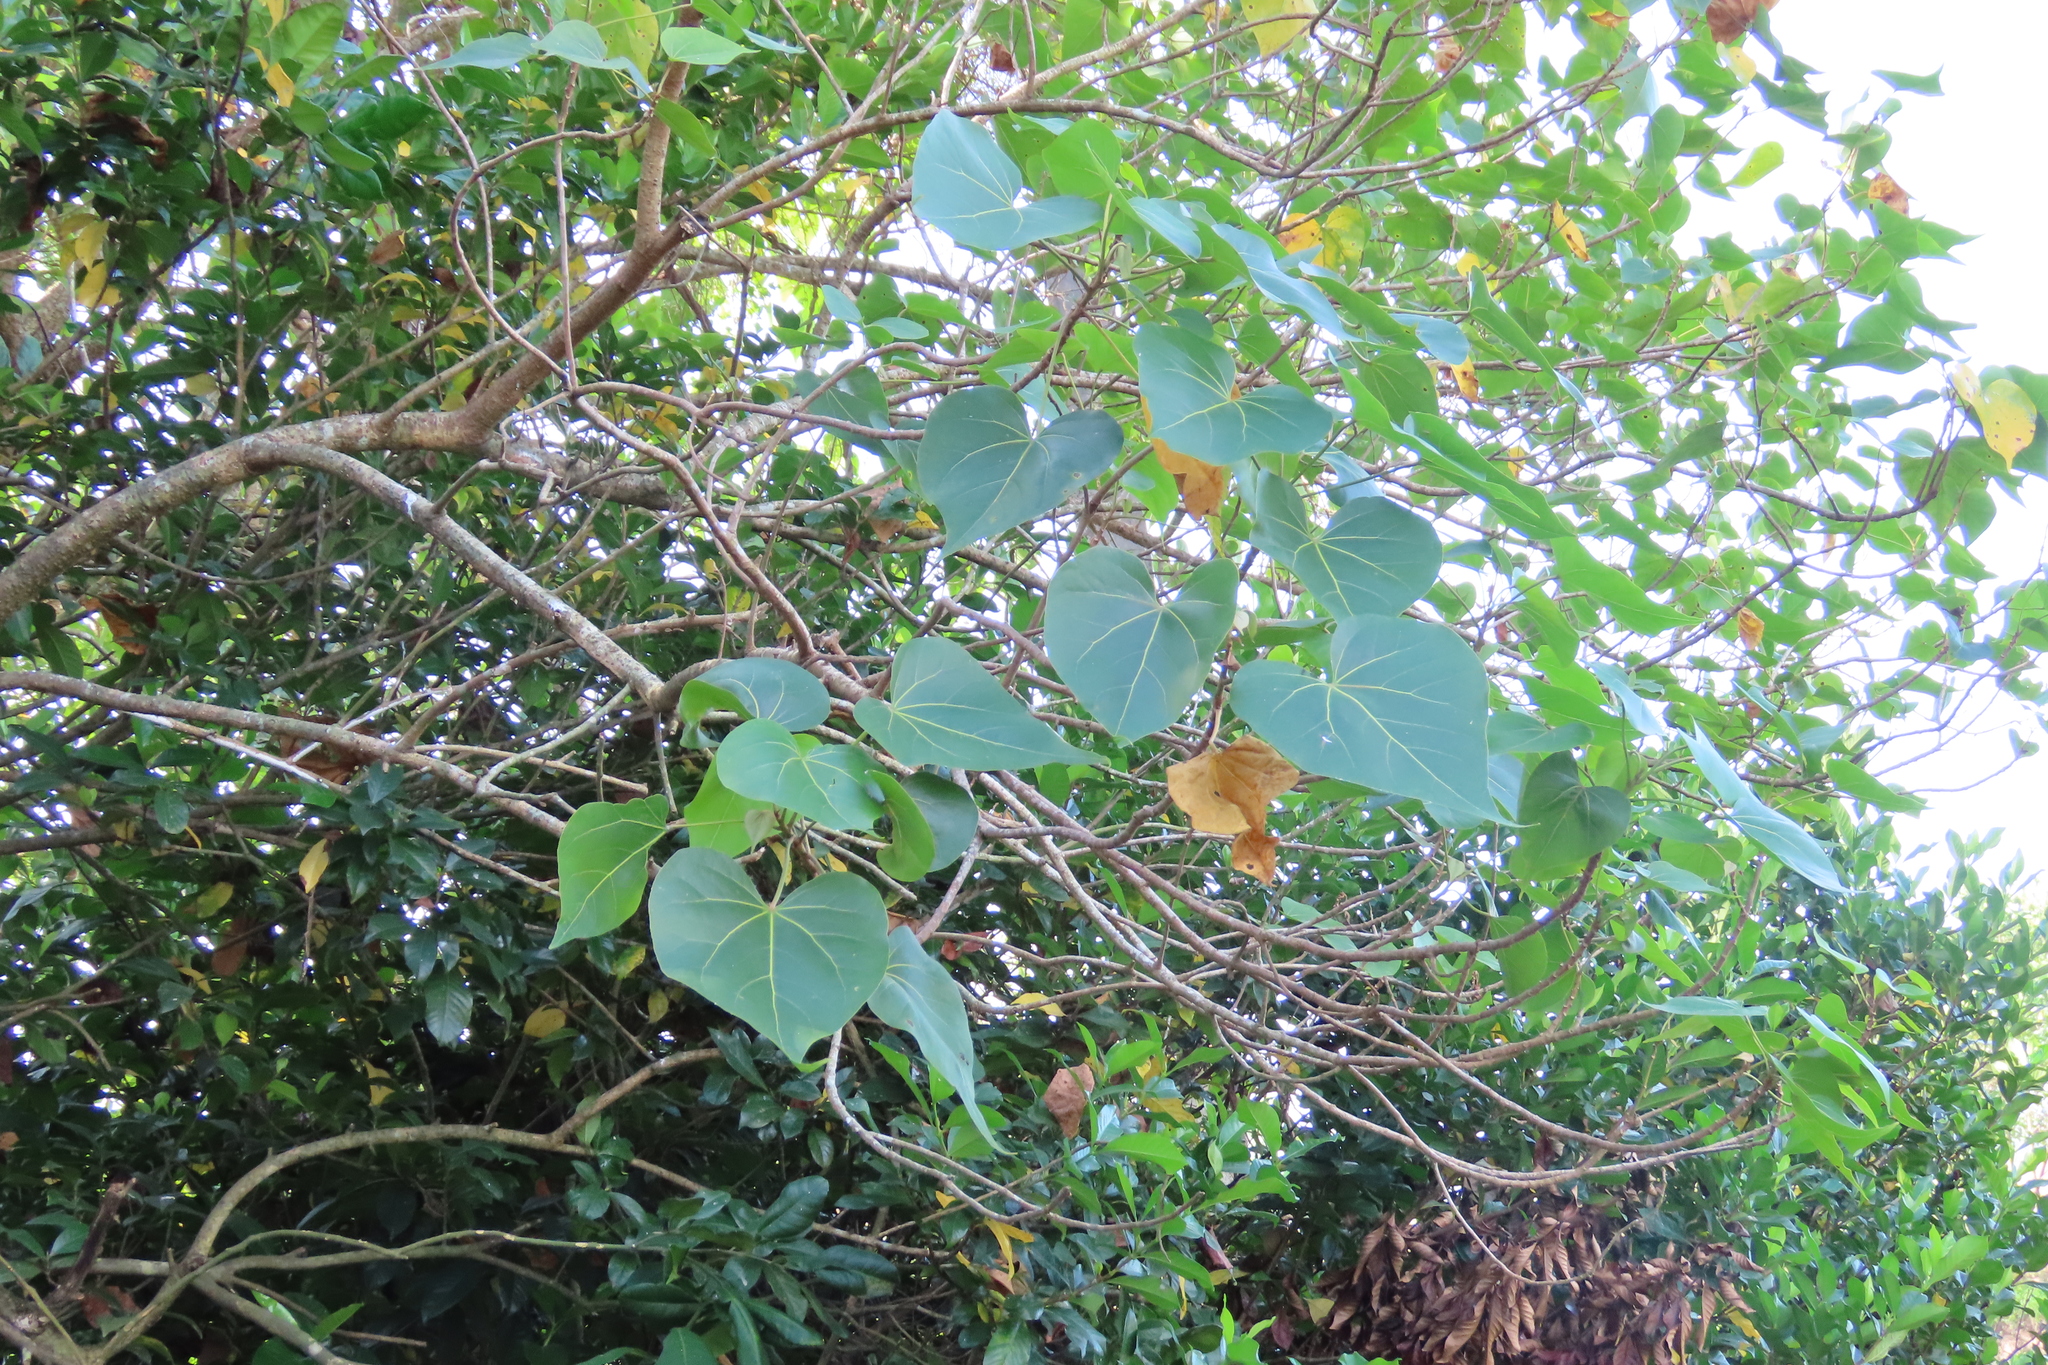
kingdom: Plantae
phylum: Tracheophyta
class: Magnoliopsida
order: Malvales
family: Malvaceae
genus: Thespesia
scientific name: Thespesia populnea
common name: Seaside mahoe
